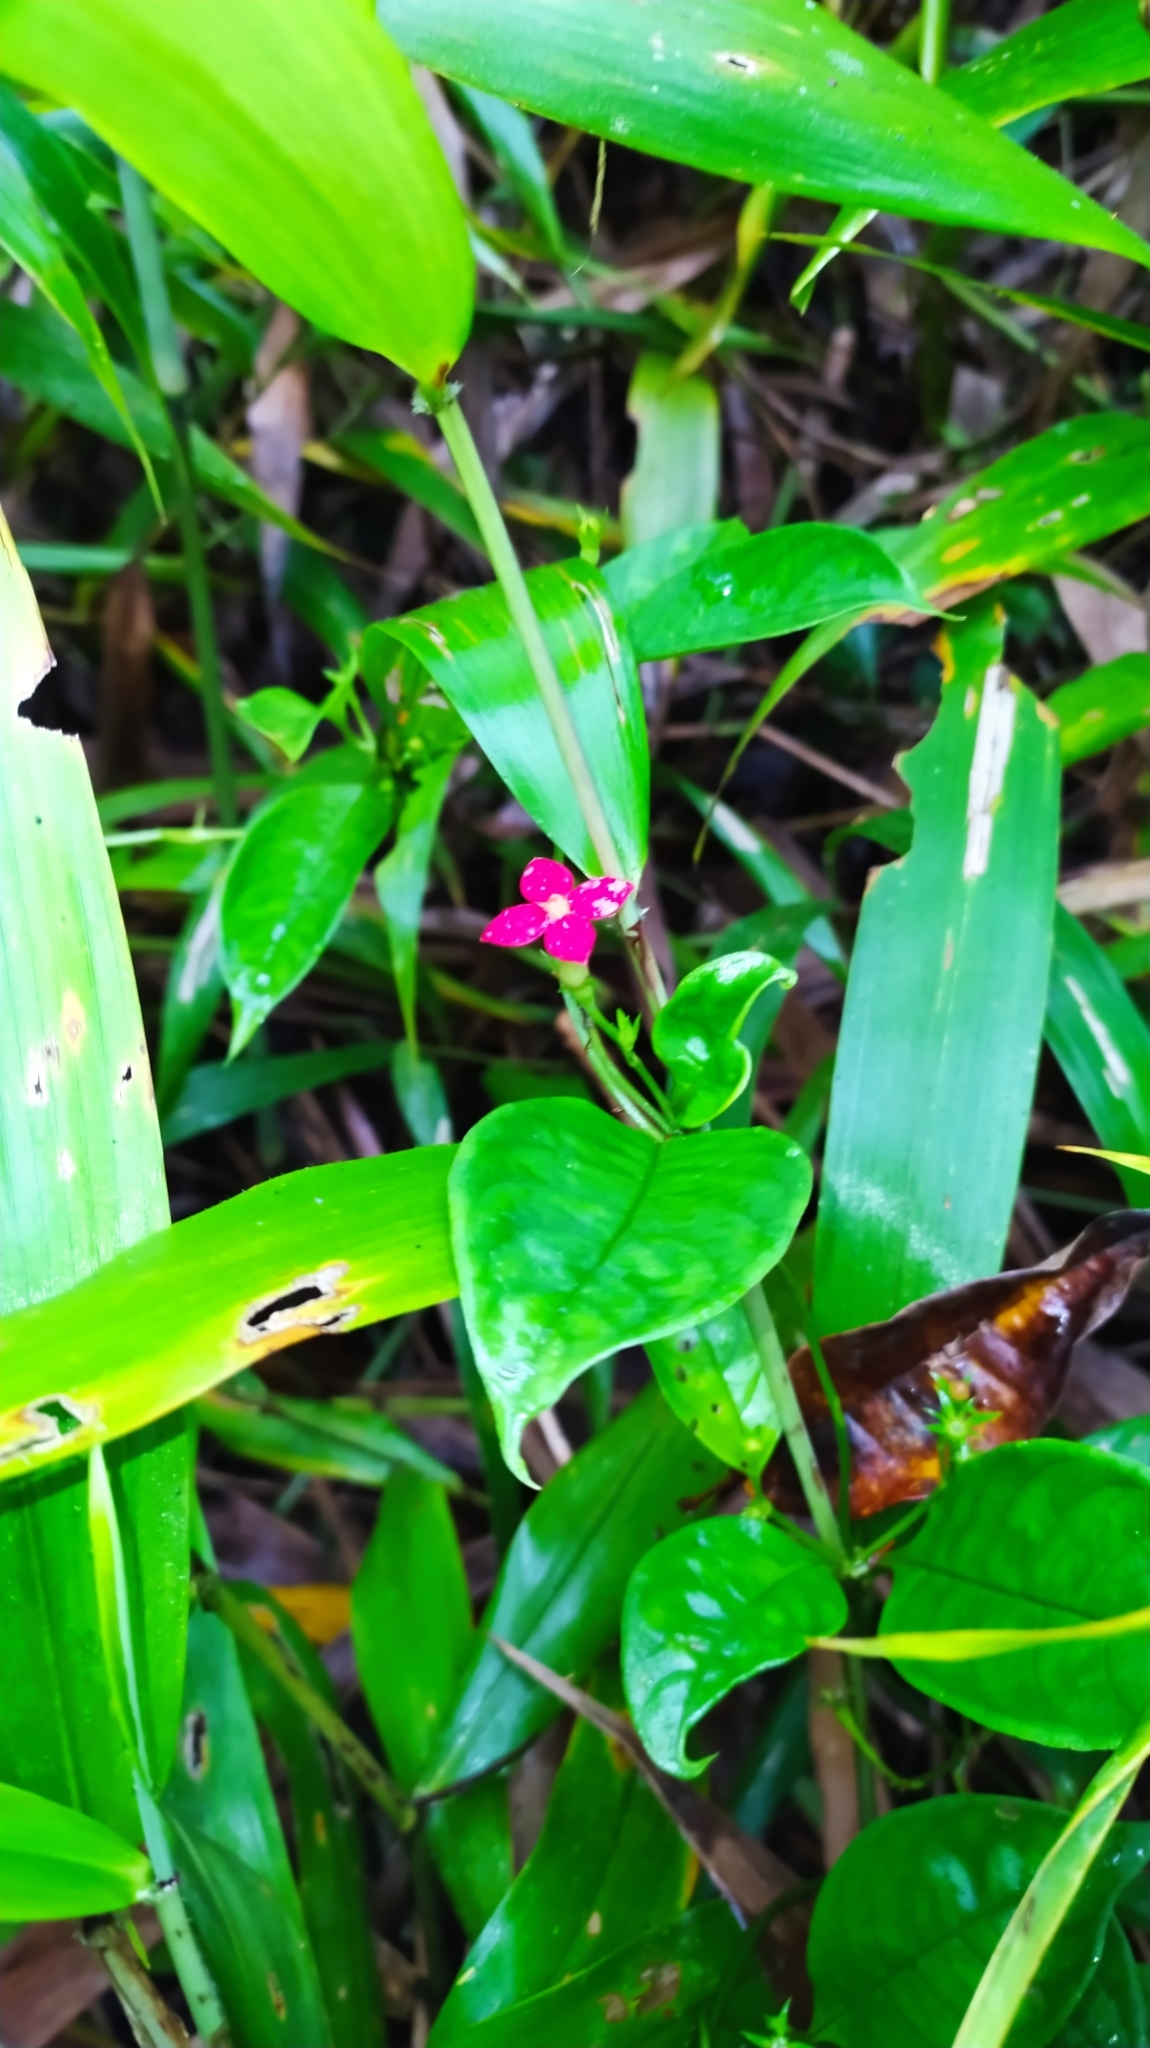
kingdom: Plantae
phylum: Tracheophyta
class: Magnoliopsida
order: Gentianales
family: Rubiaceae
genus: Manettia
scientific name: Manettia coccinea
